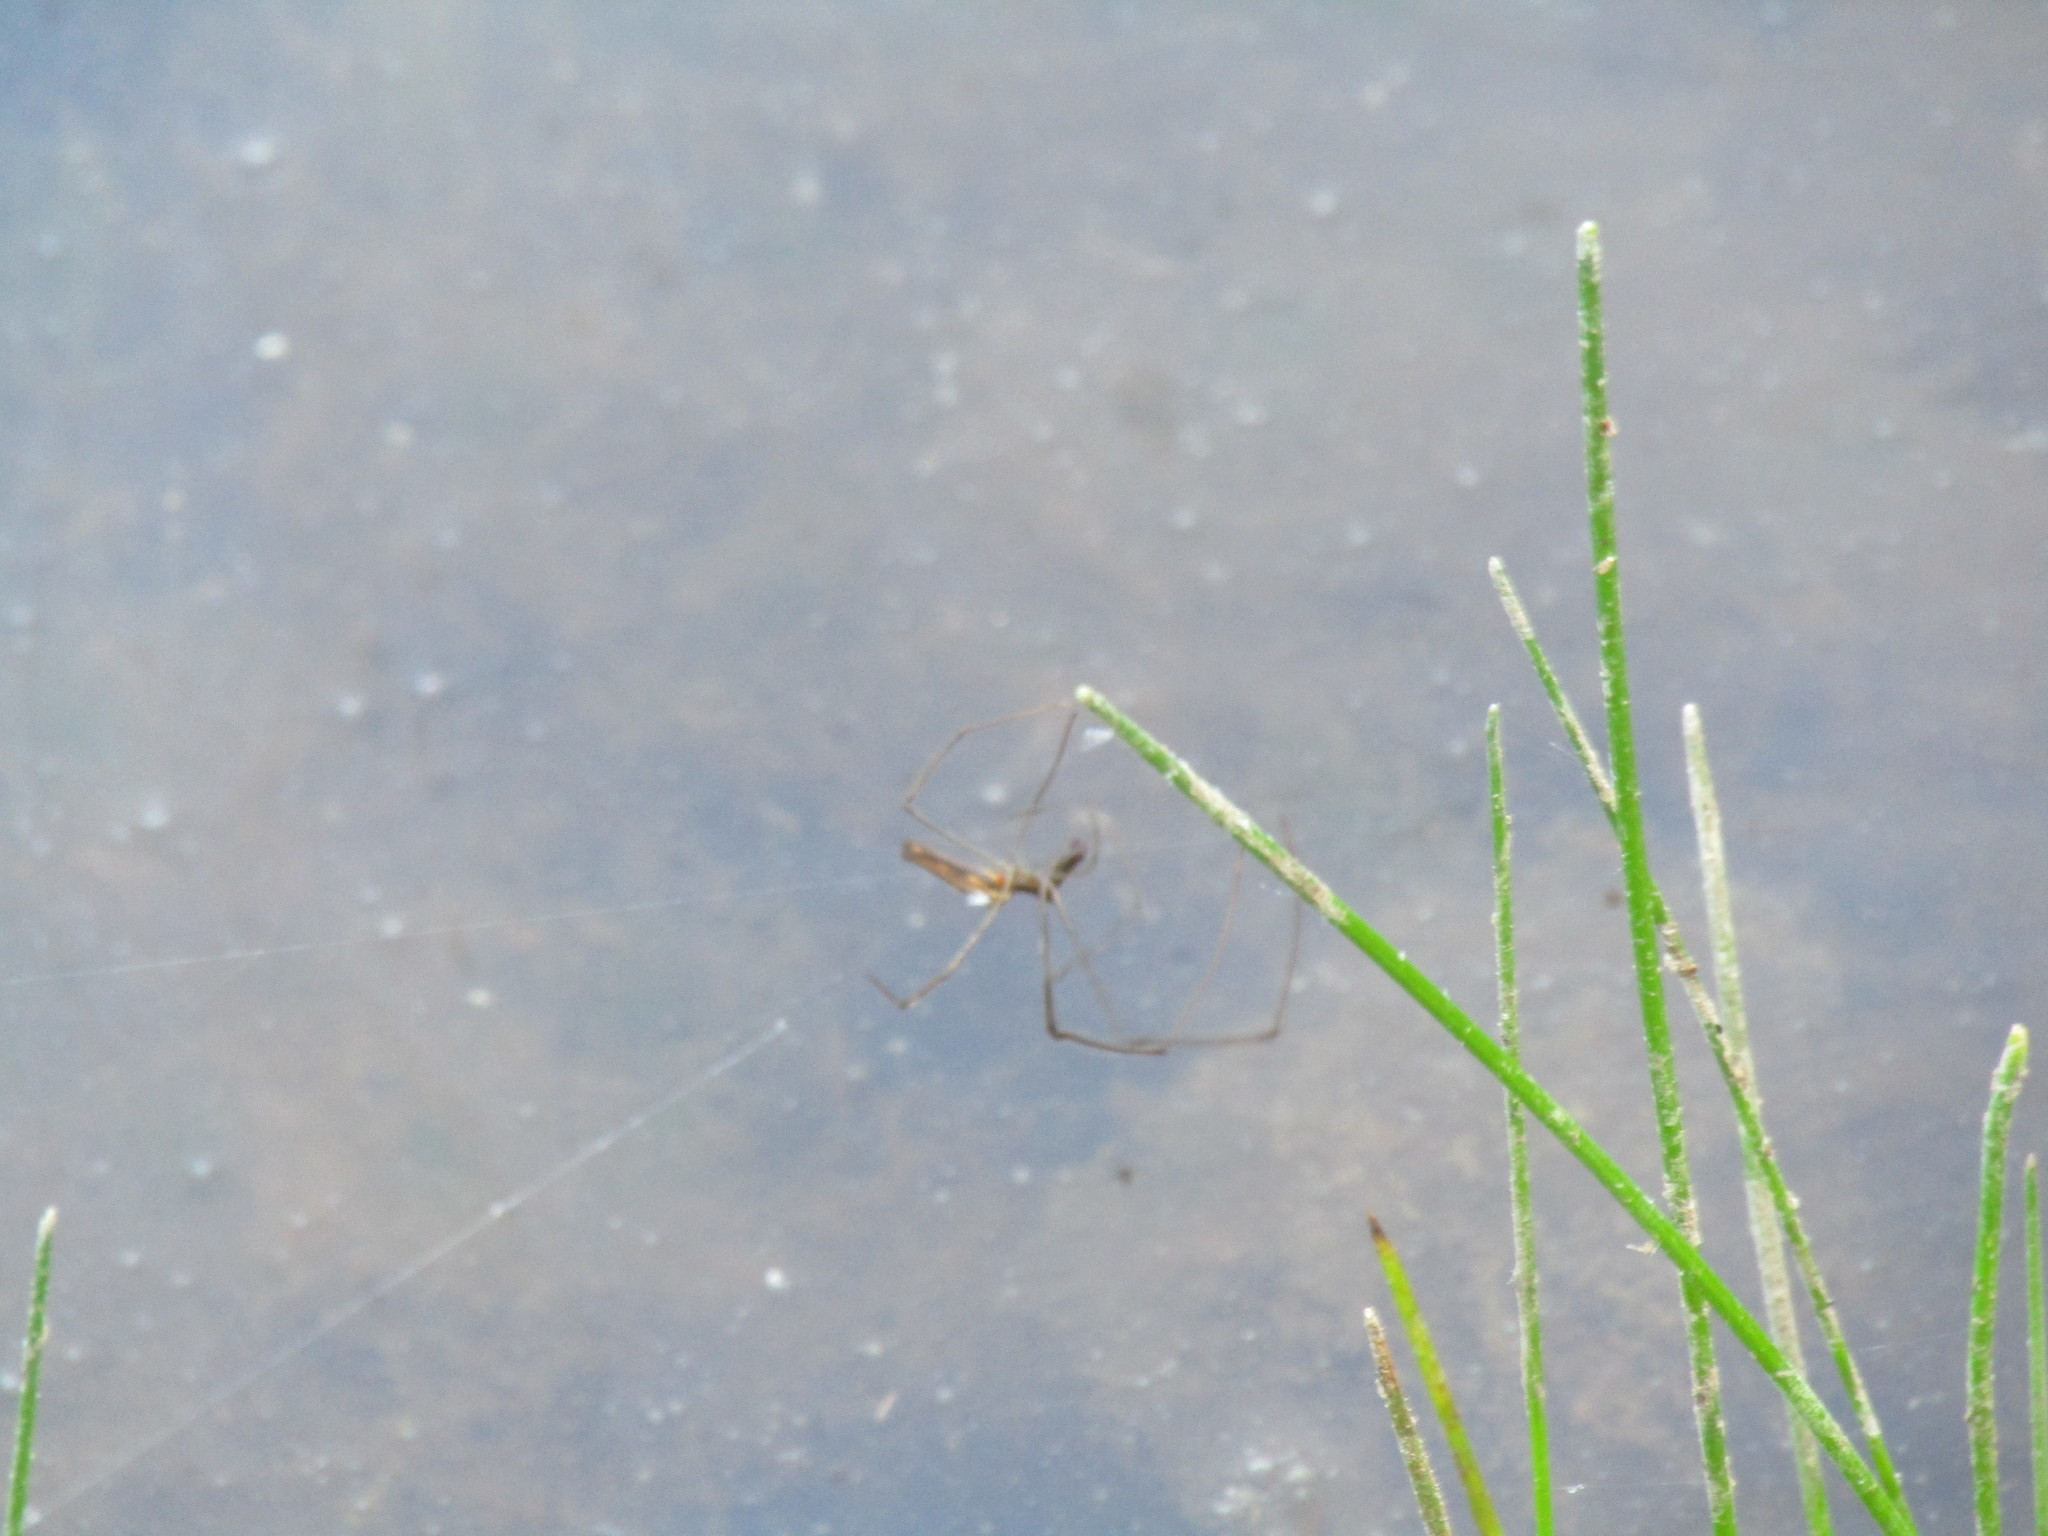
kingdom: Animalia
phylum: Arthropoda
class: Arachnida
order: Araneae
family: Tetragnathidae
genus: Tetragnatha
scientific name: Tetragnatha
